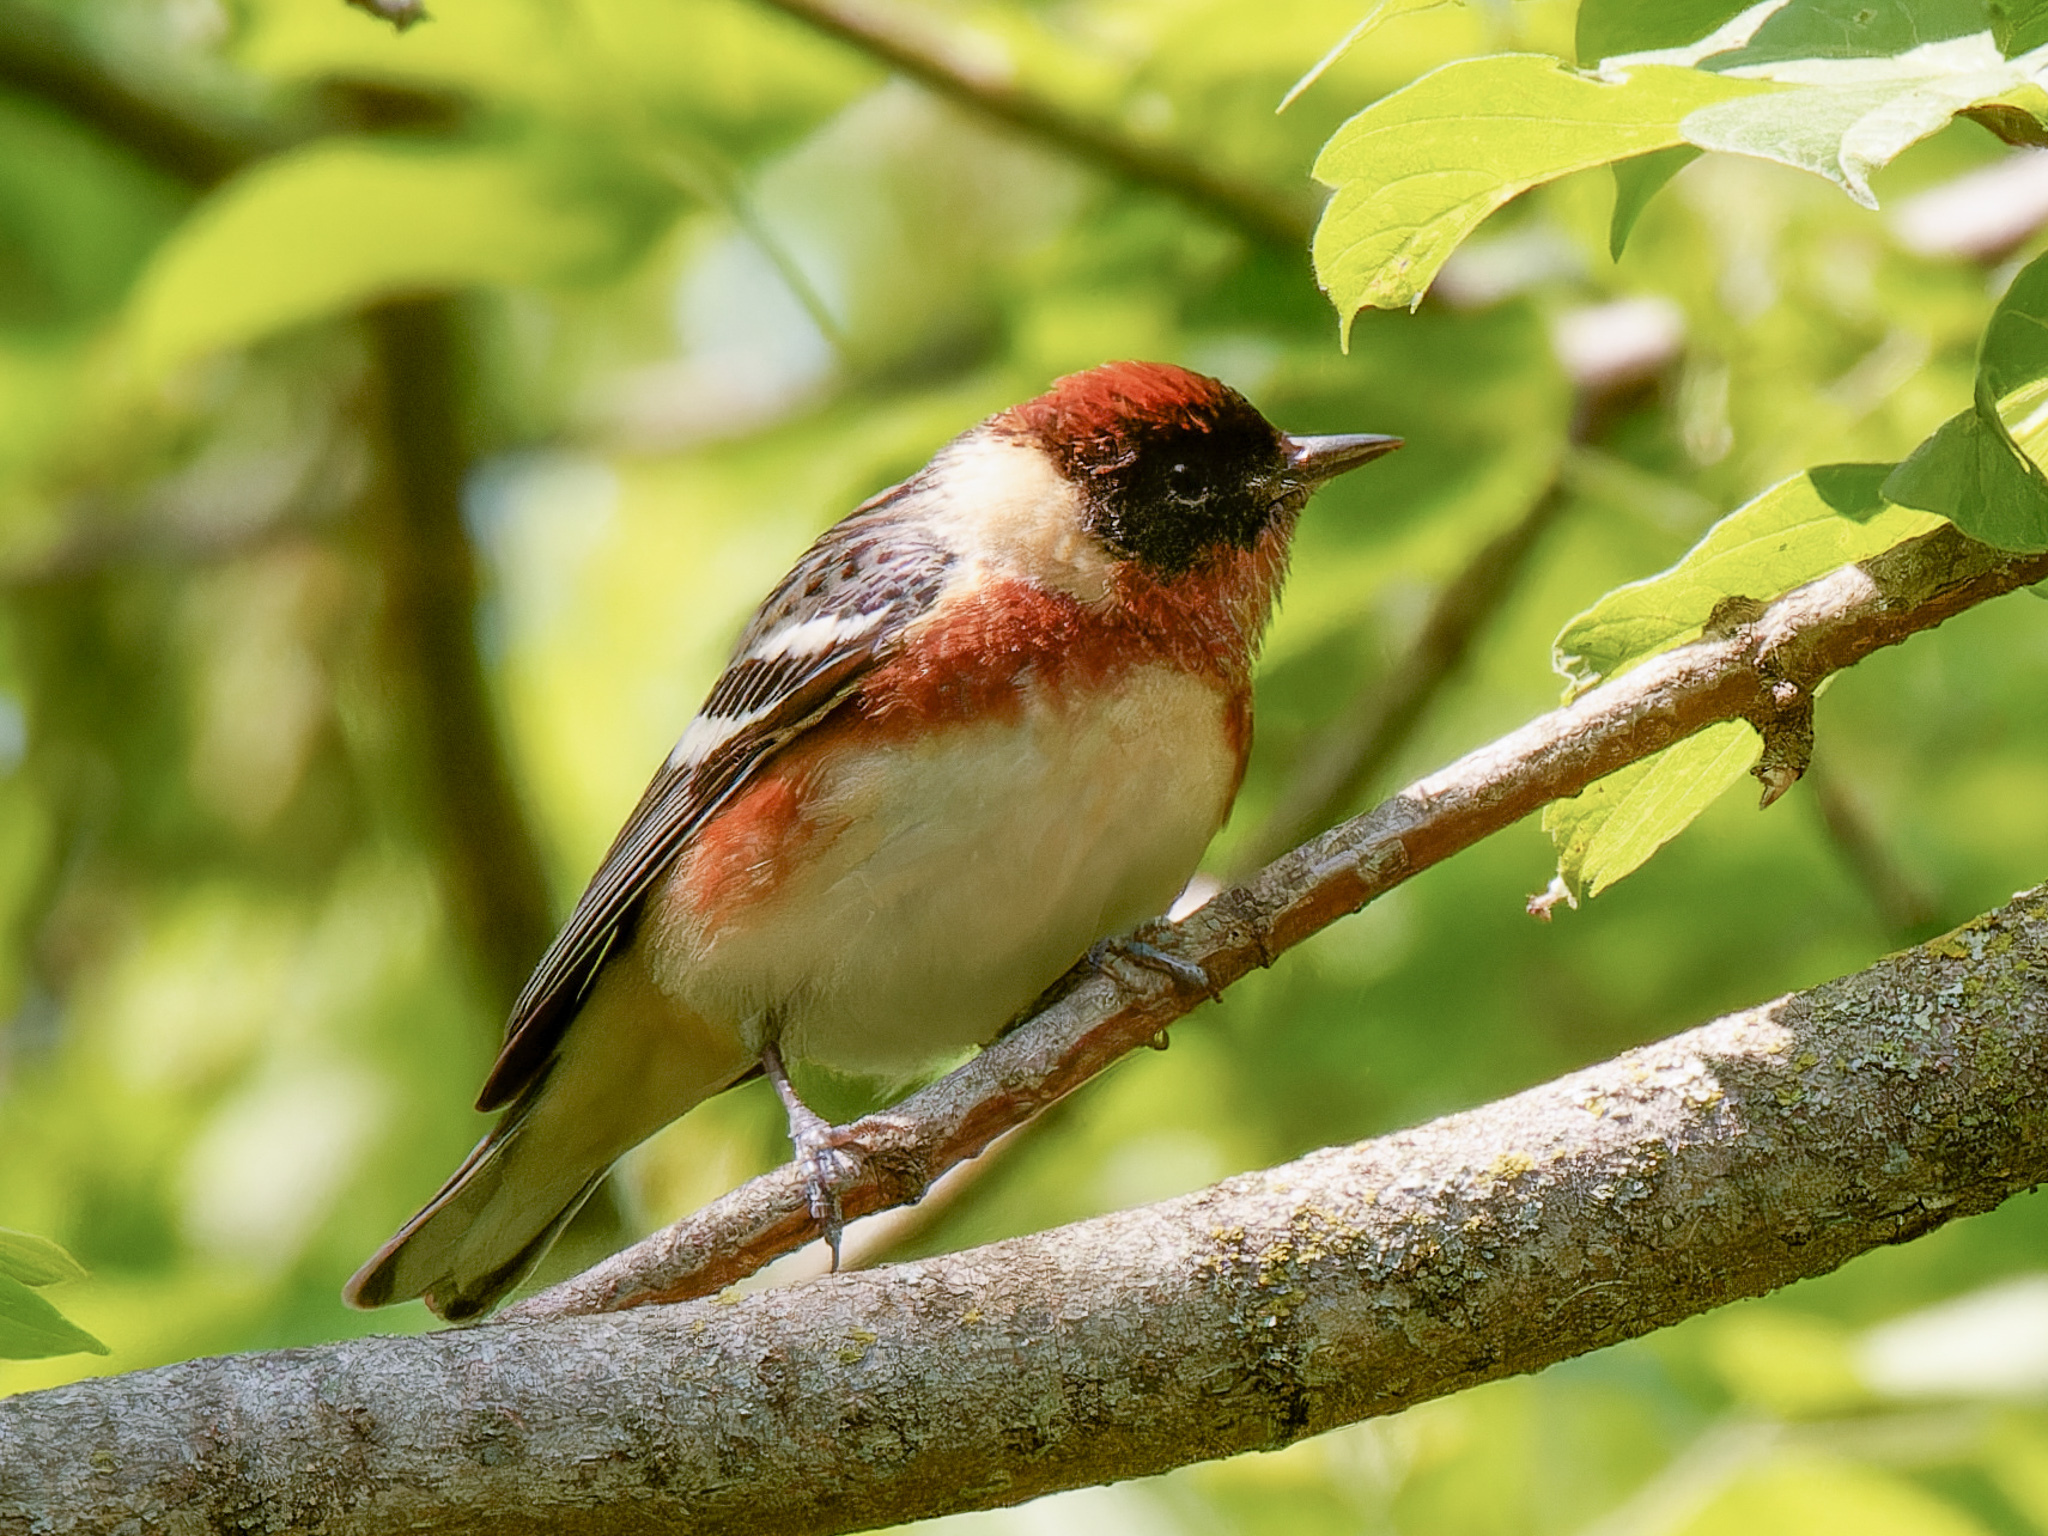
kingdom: Animalia
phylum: Chordata
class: Aves
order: Passeriformes
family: Parulidae
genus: Setophaga
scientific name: Setophaga castanea
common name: Bay-breasted warbler
